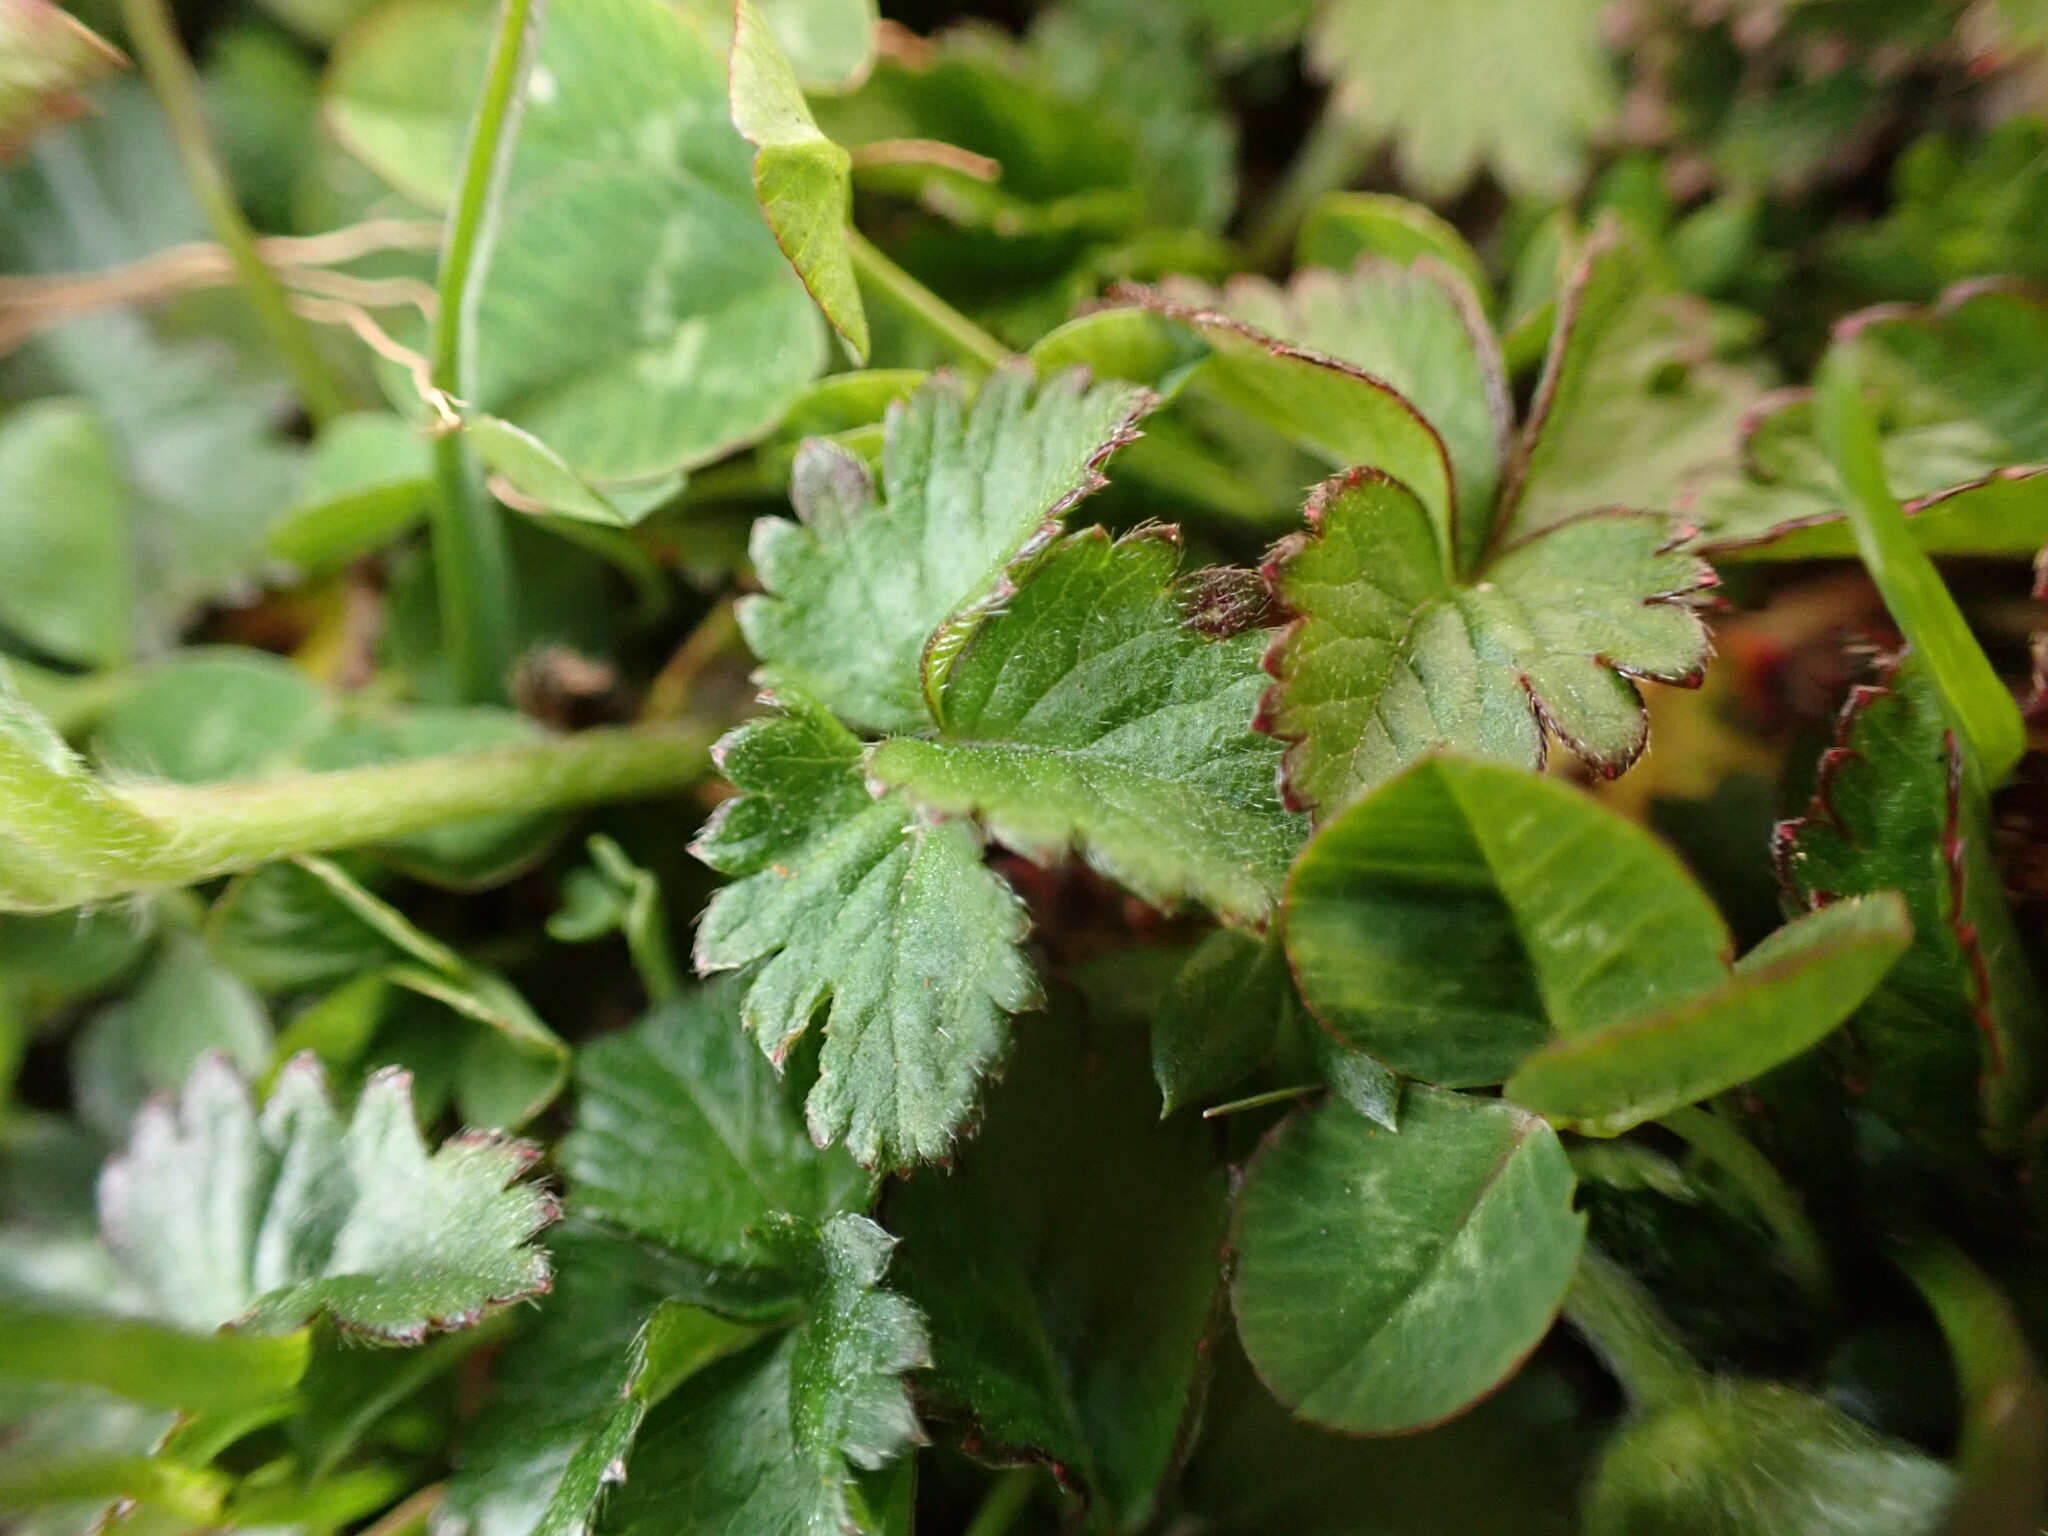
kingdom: Plantae
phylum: Tracheophyta
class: Magnoliopsida
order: Rosales
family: Rosaceae
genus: Potentilla
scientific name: Potentilla indica
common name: Yellow-flowered strawberry
